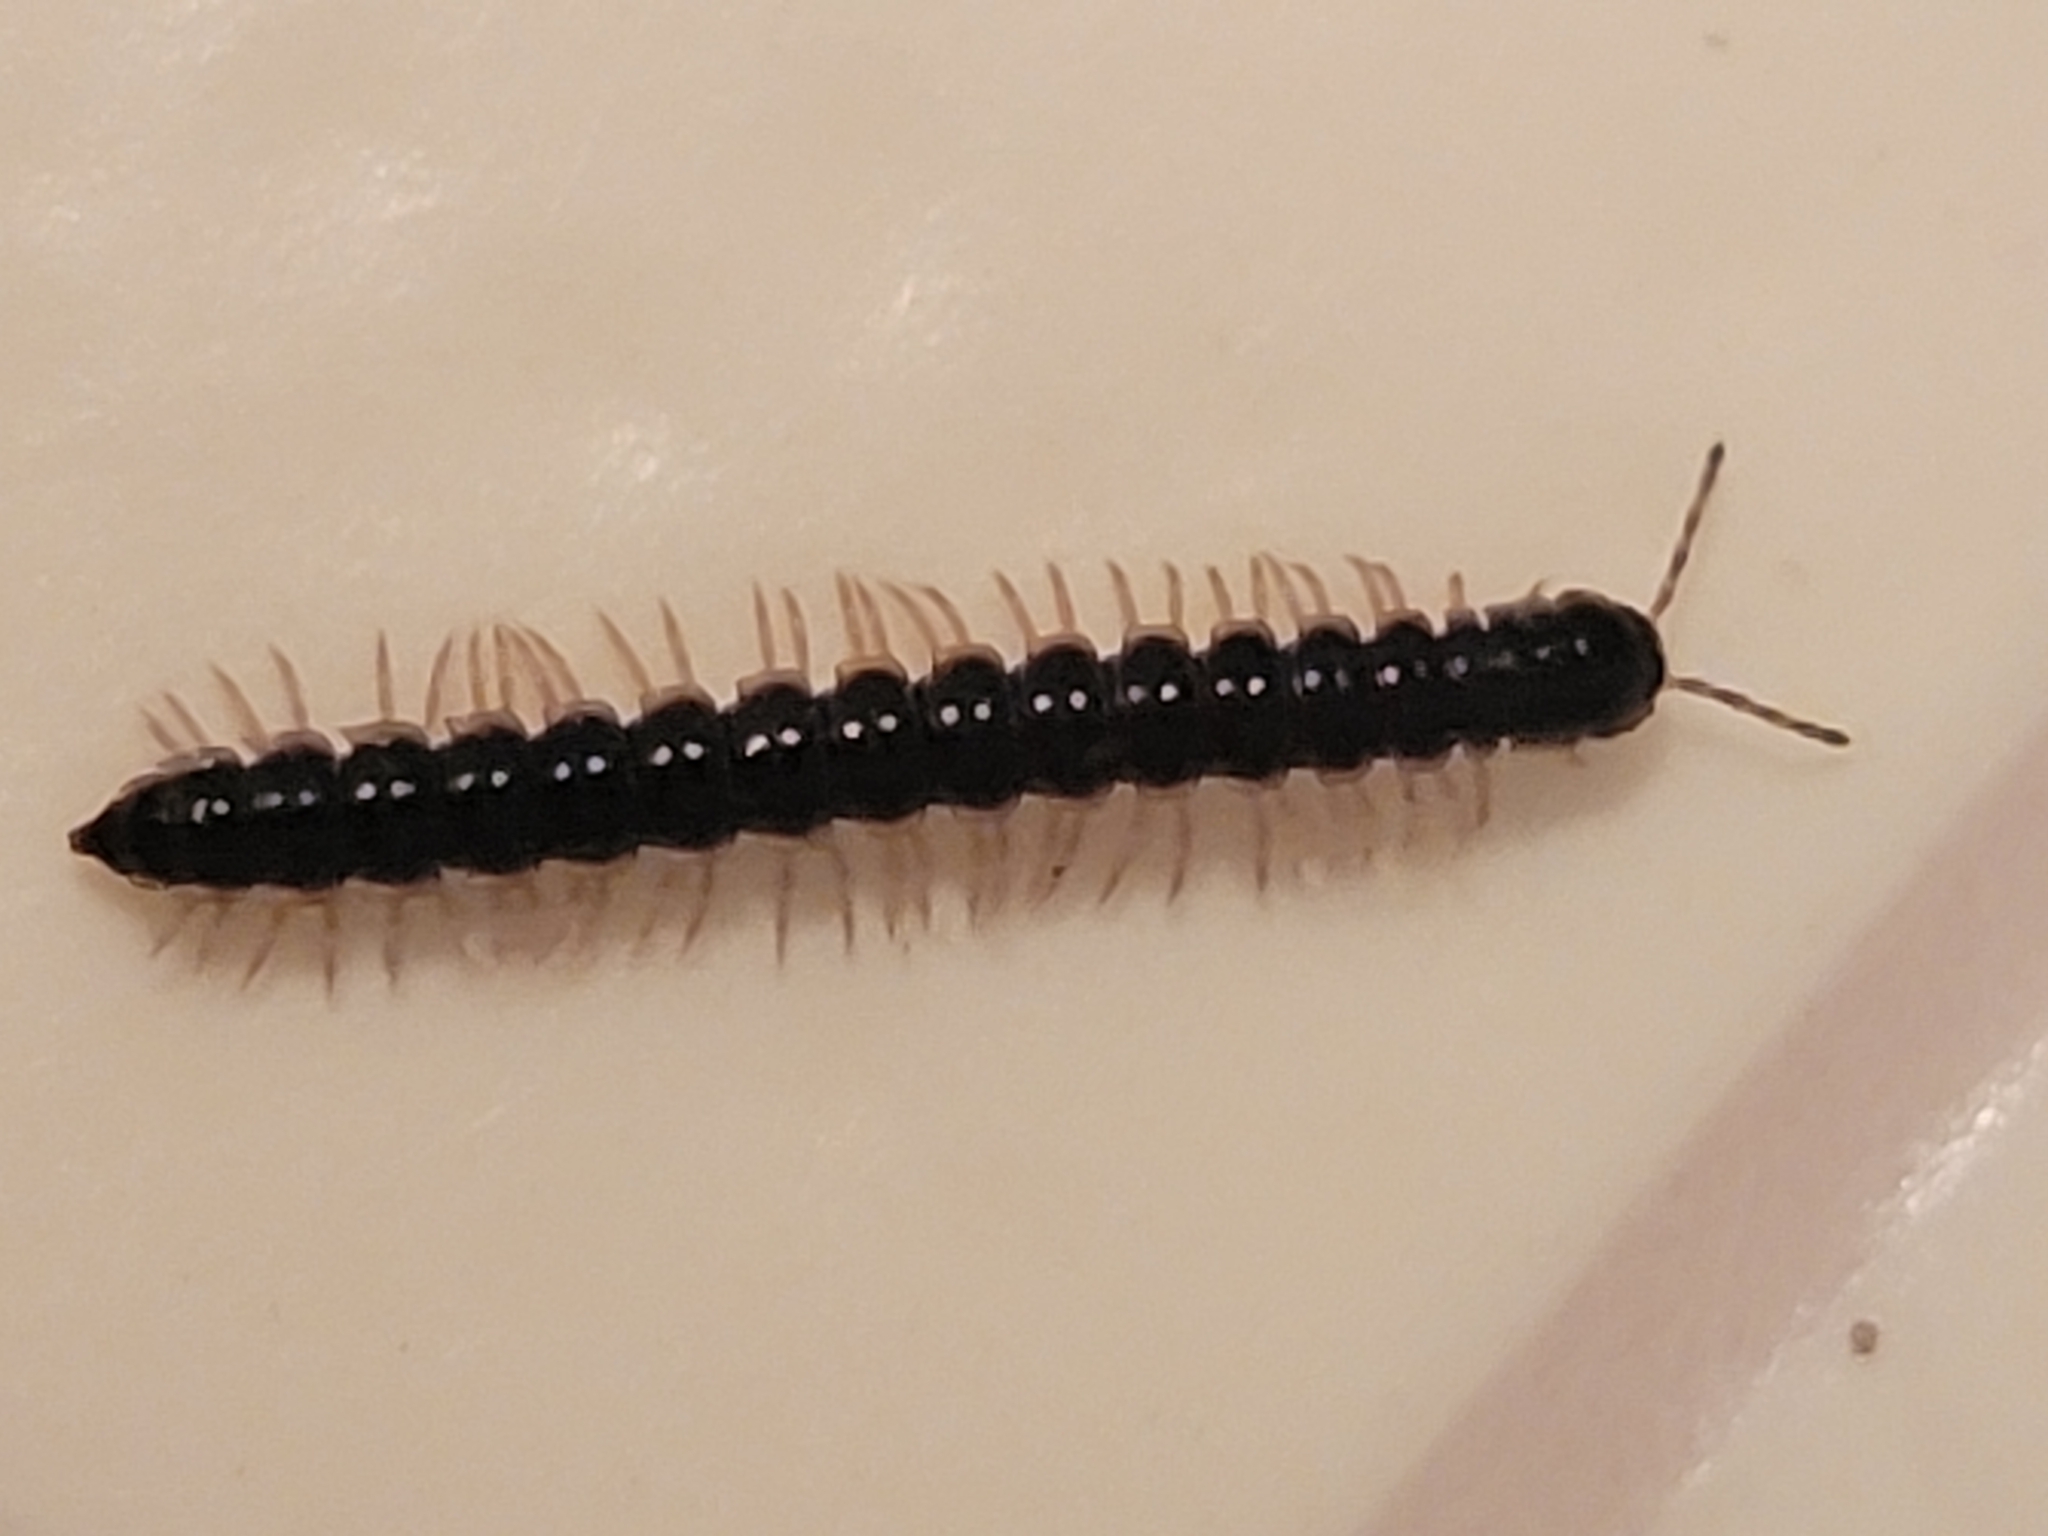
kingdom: Animalia
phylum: Arthropoda
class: Diplopoda
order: Polydesmida
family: Paradoxosomatidae
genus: Oxidus
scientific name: Oxidus gracilis
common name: Greenhouse millipede
